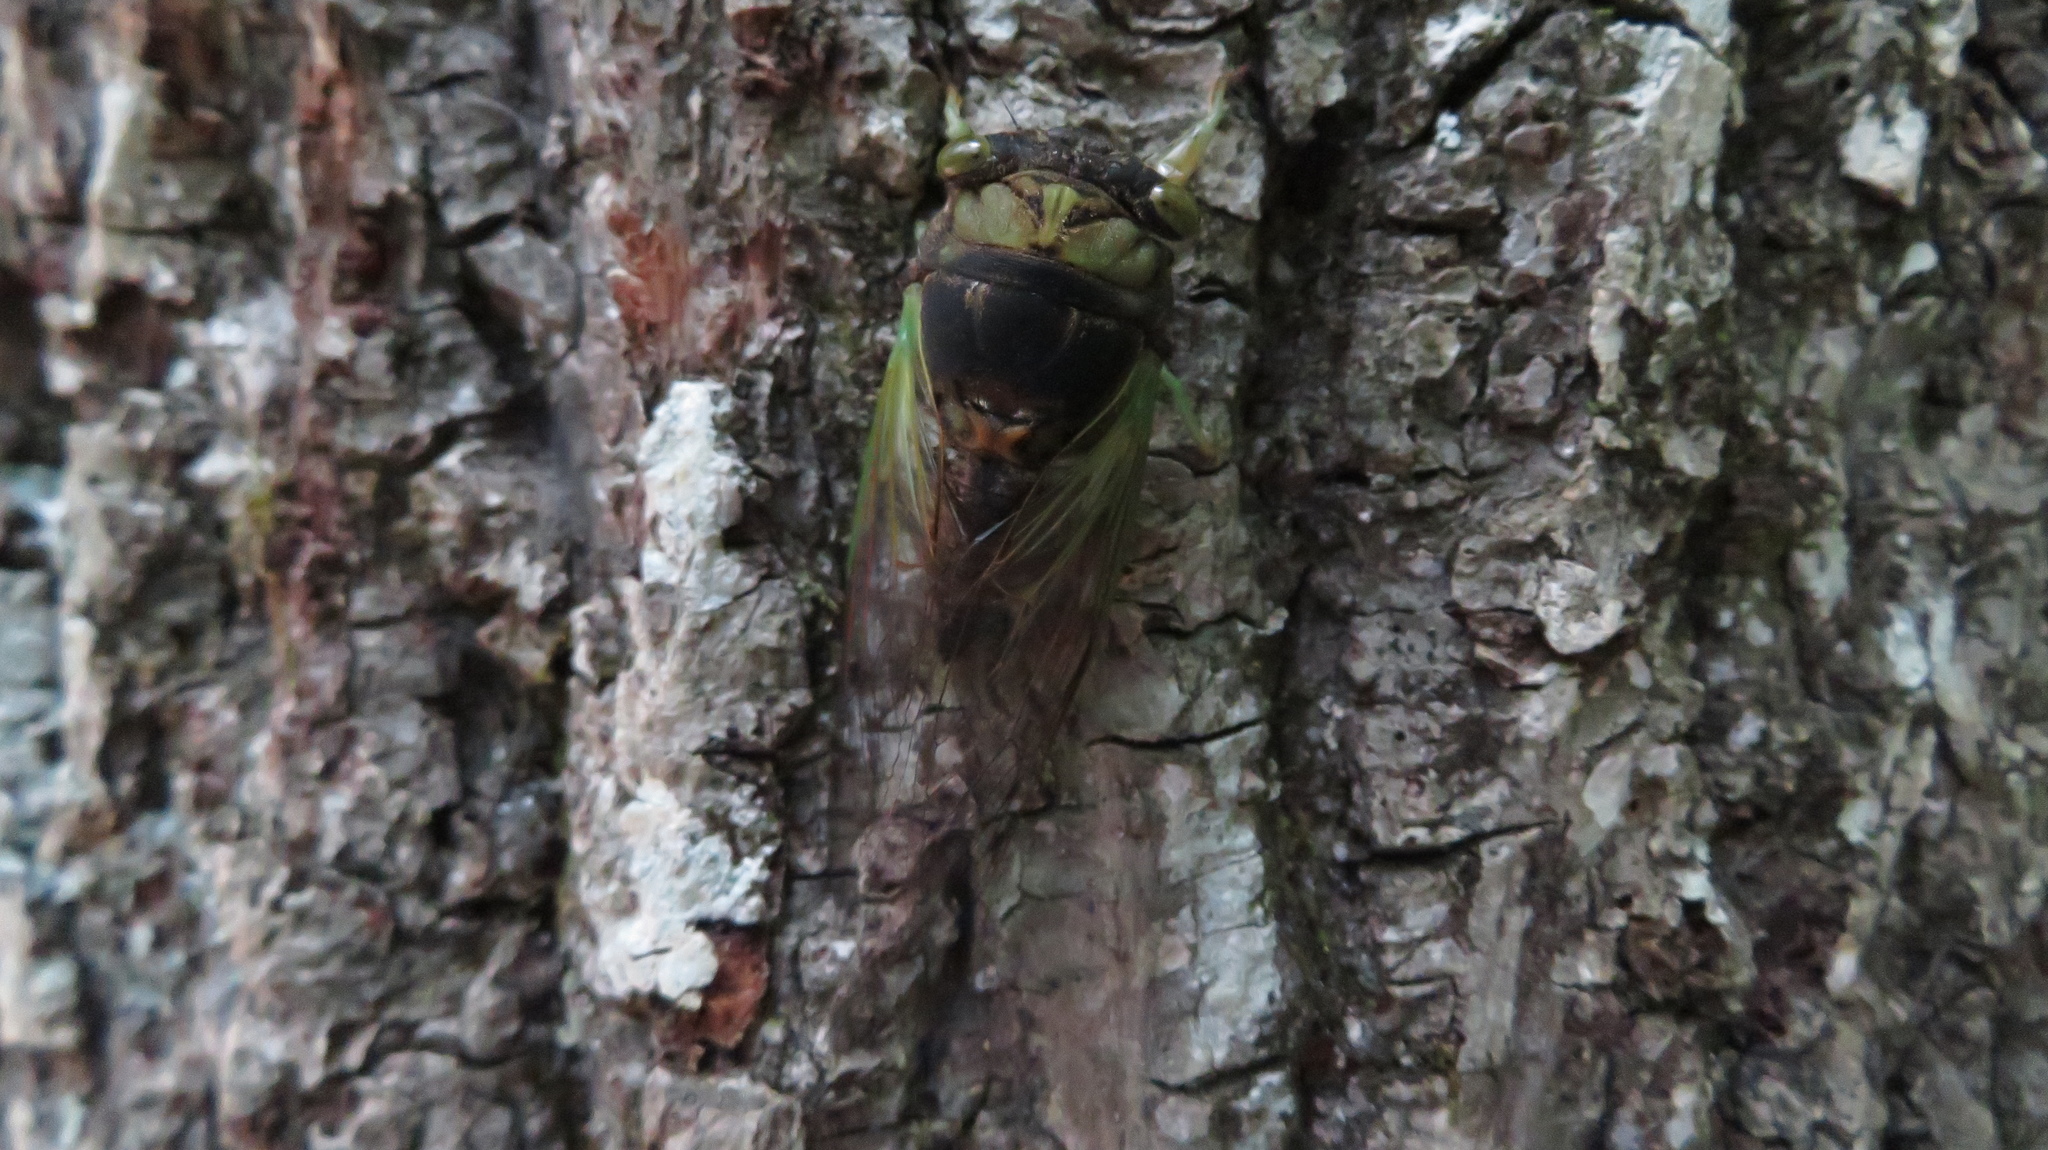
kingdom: Animalia
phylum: Arthropoda
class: Insecta
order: Hemiptera
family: Cicadidae
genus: Neotibicen
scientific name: Neotibicen tibicen
